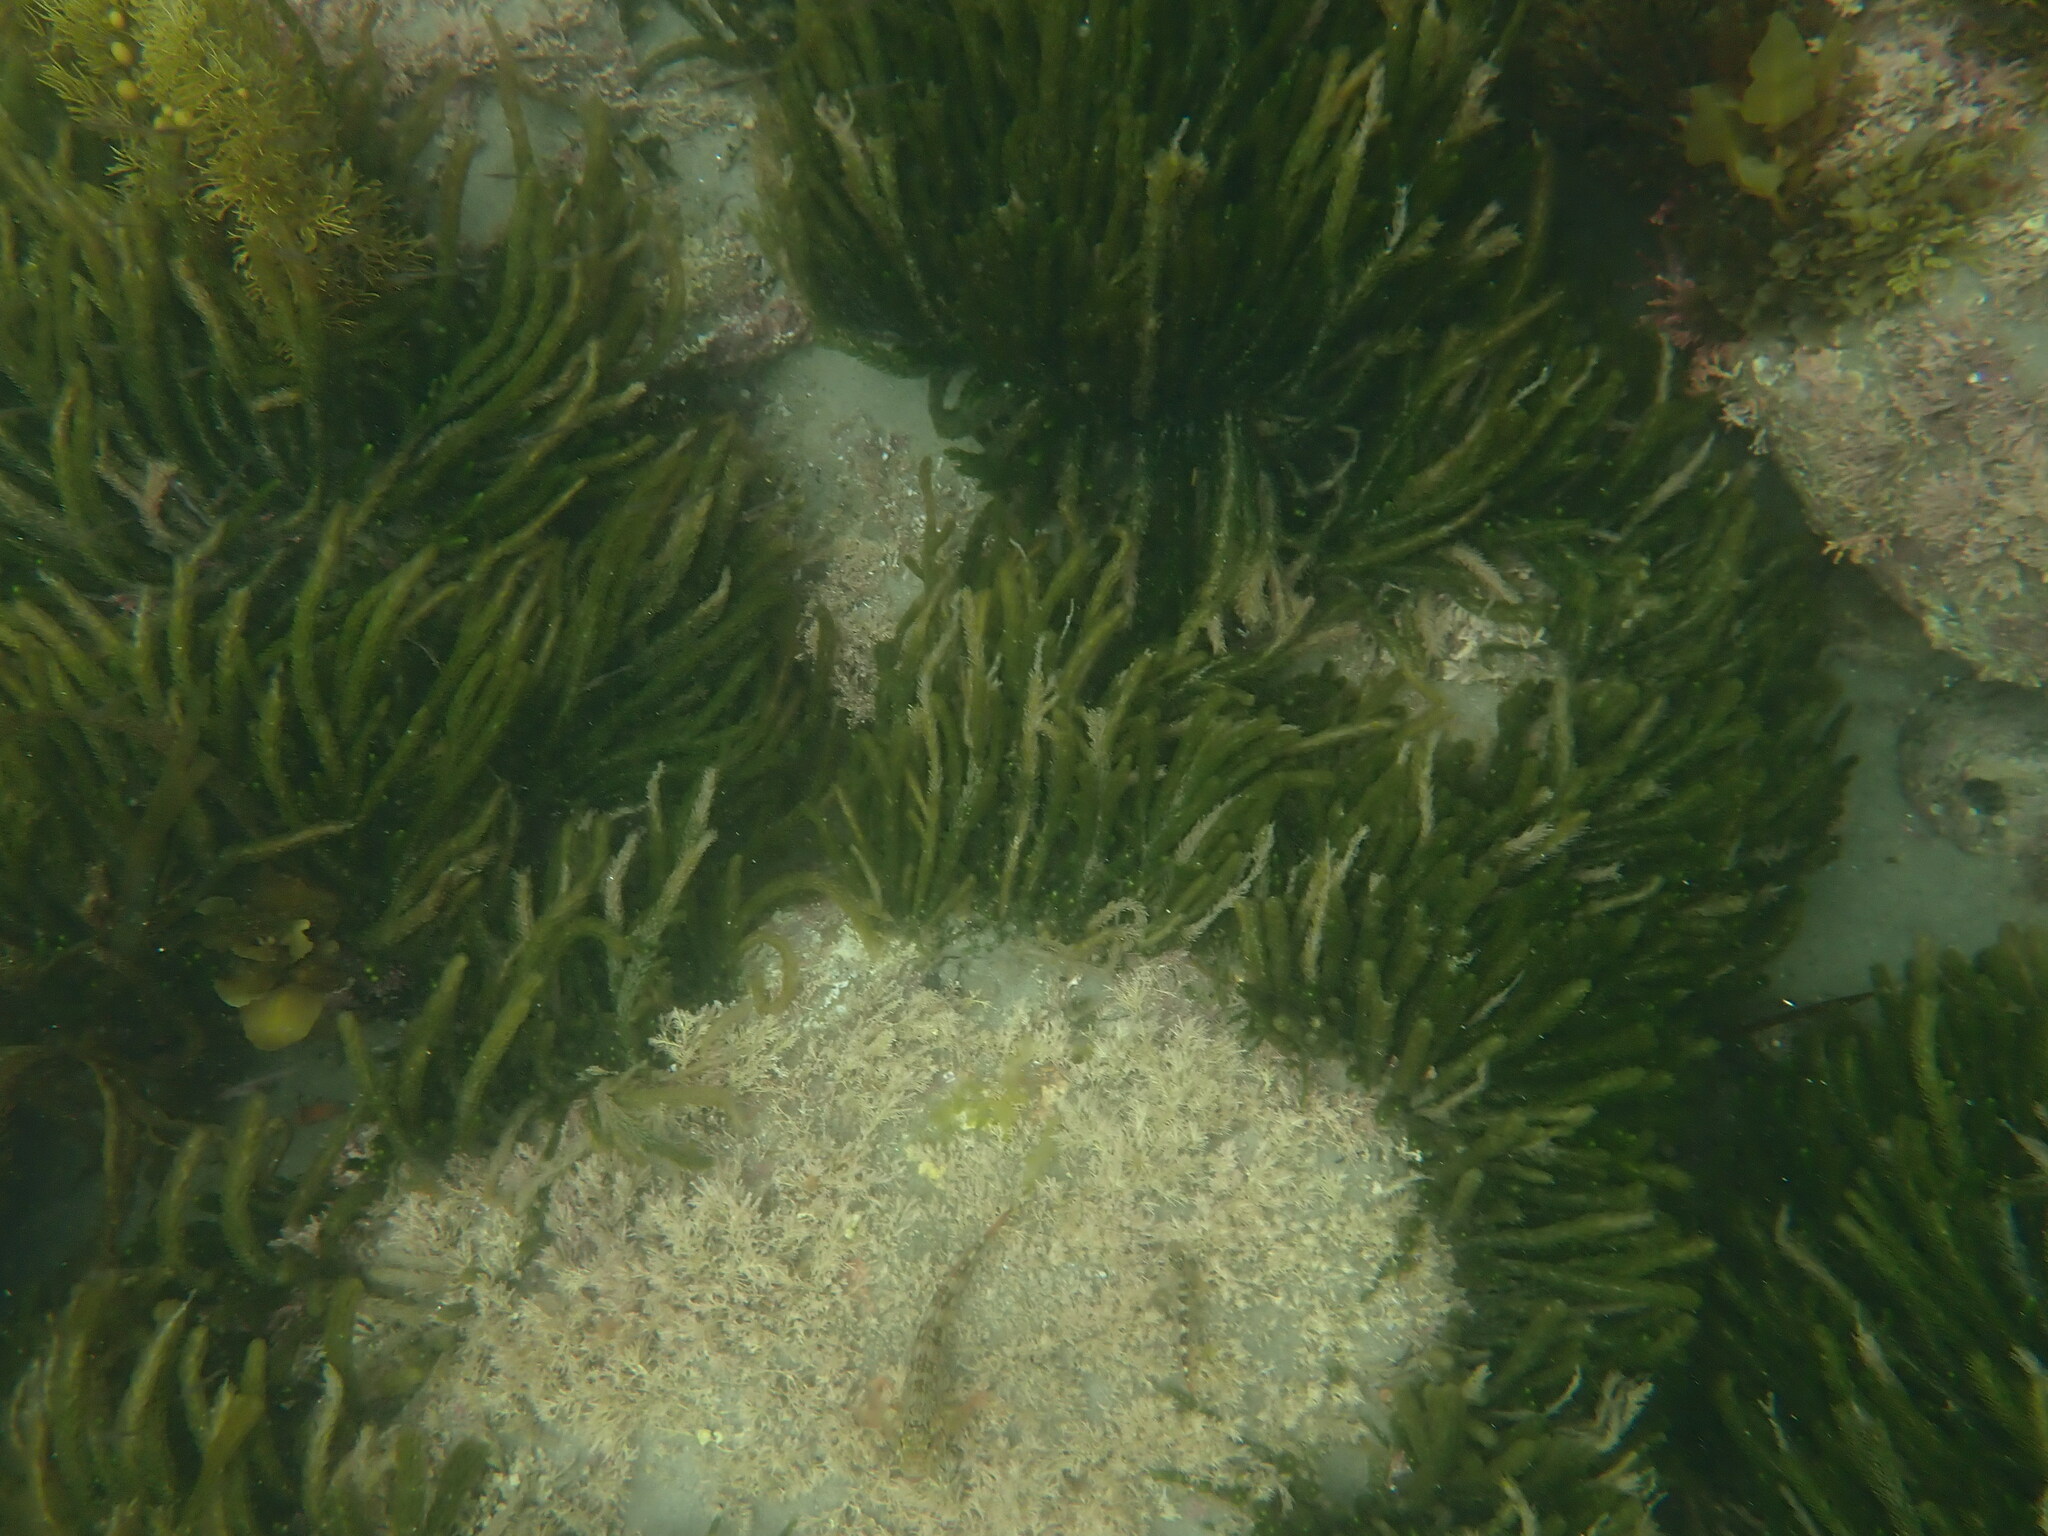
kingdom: Animalia
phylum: Chordata
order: Perciformes
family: Tripterygiidae
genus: Forsterygion
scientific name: Forsterygion varium
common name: Variable triplefin
